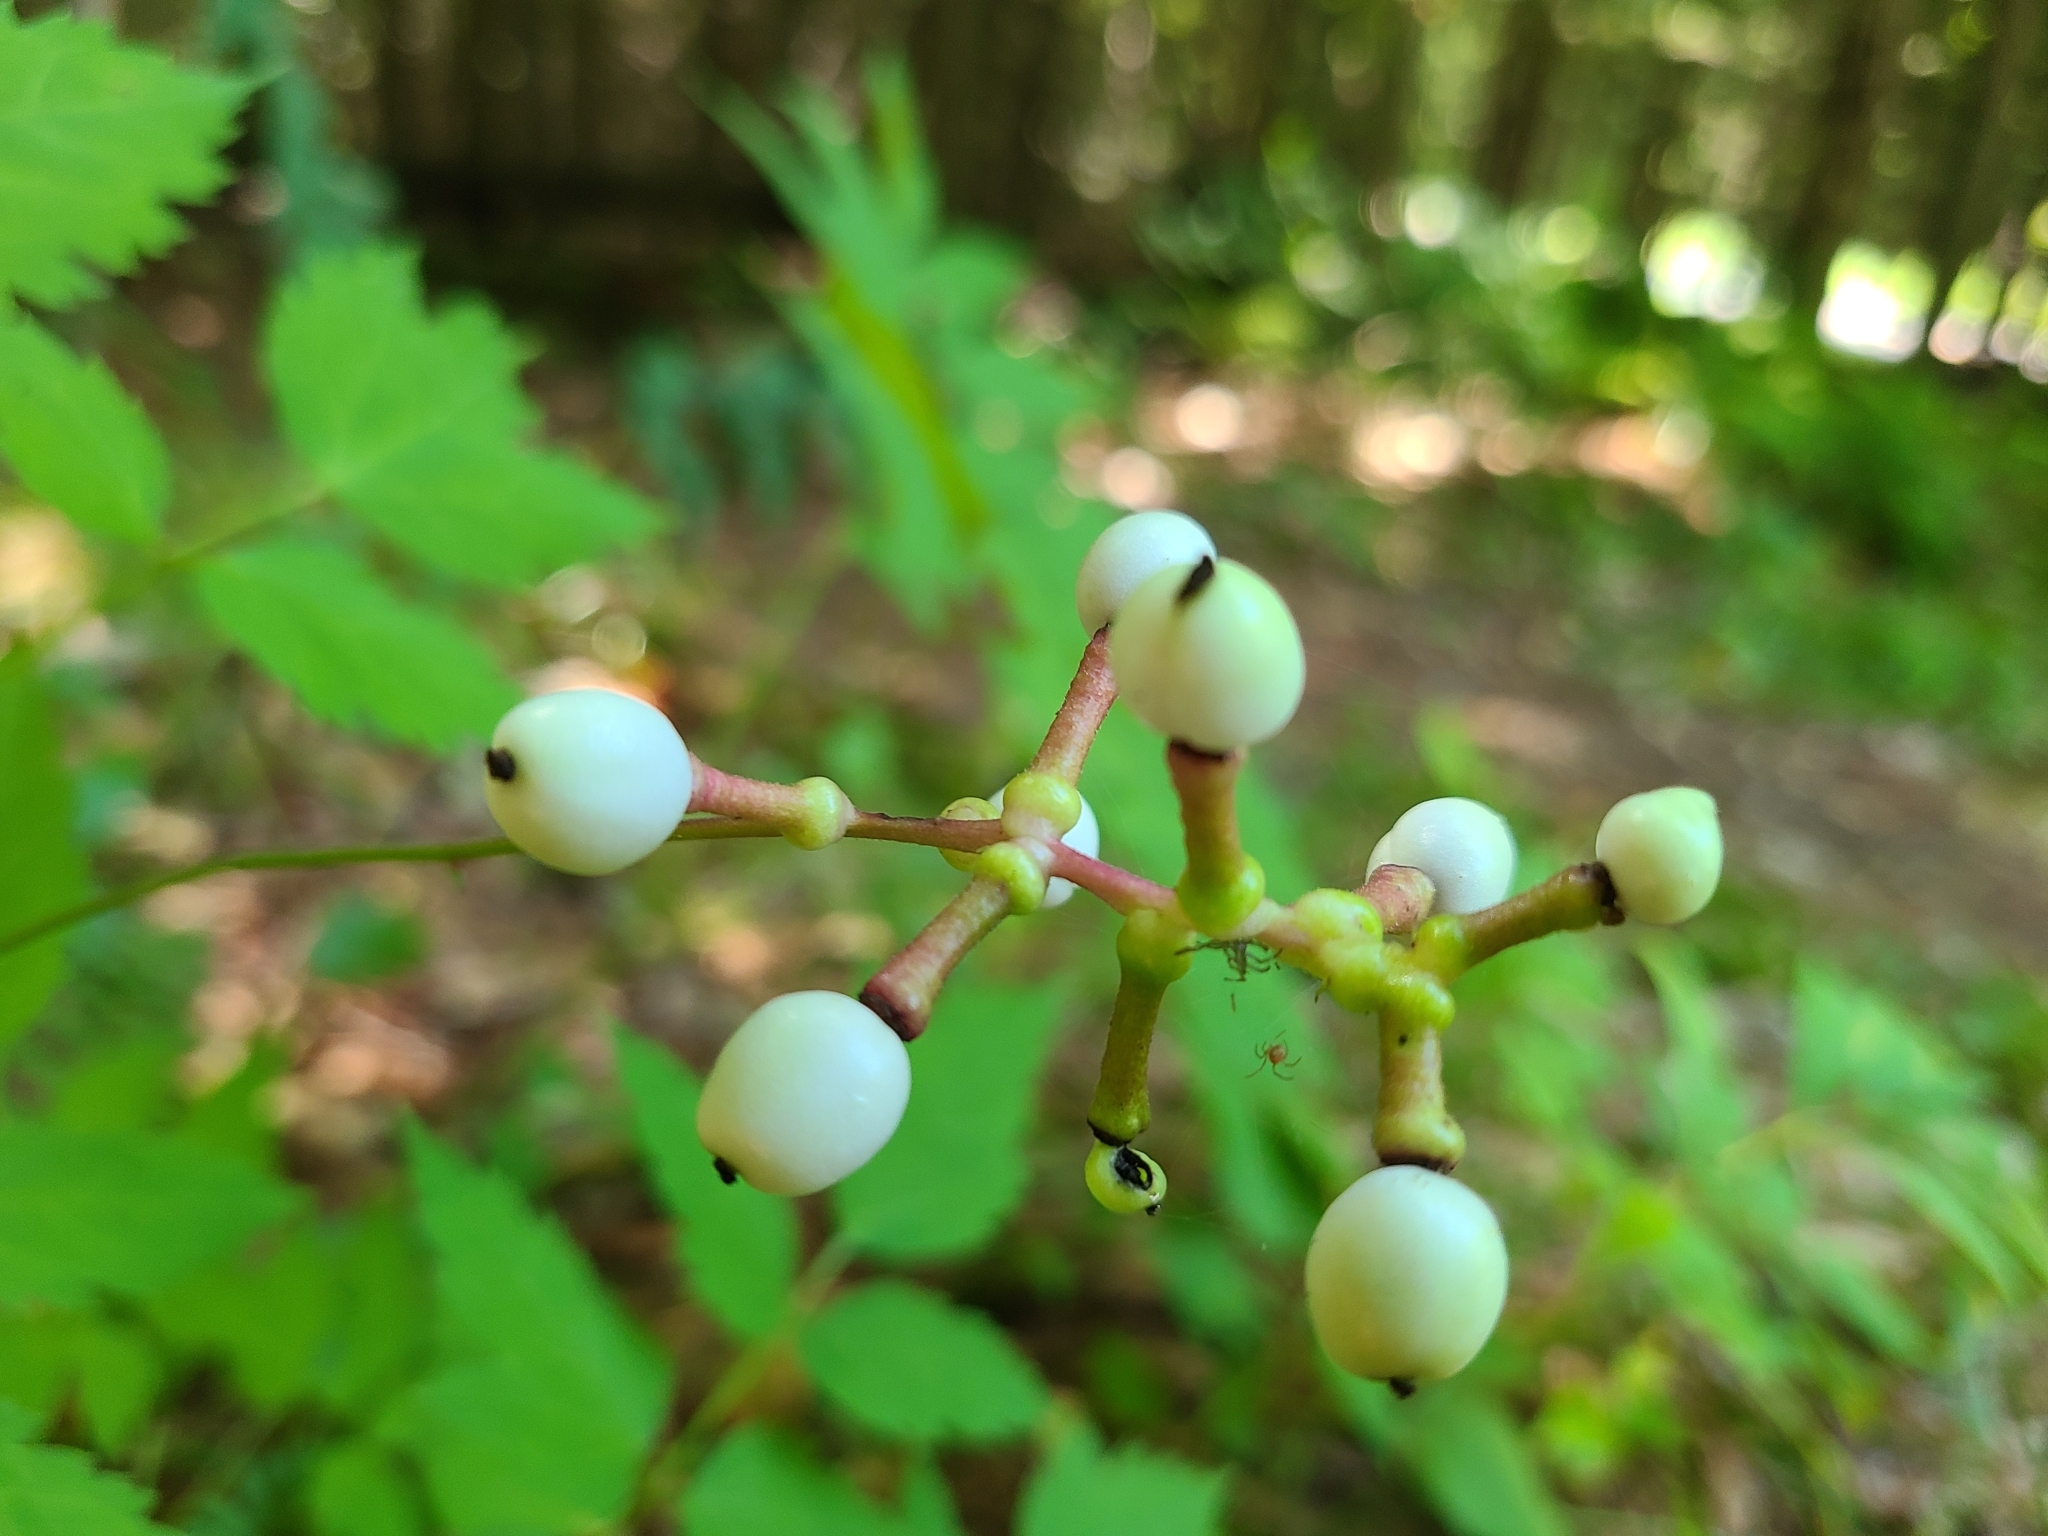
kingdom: Plantae
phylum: Tracheophyta
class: Magnoliopsida
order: Ranunculales
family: Ranunculaceae
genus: Actaea
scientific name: Actaea pachypoda
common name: Doll's-eyes
